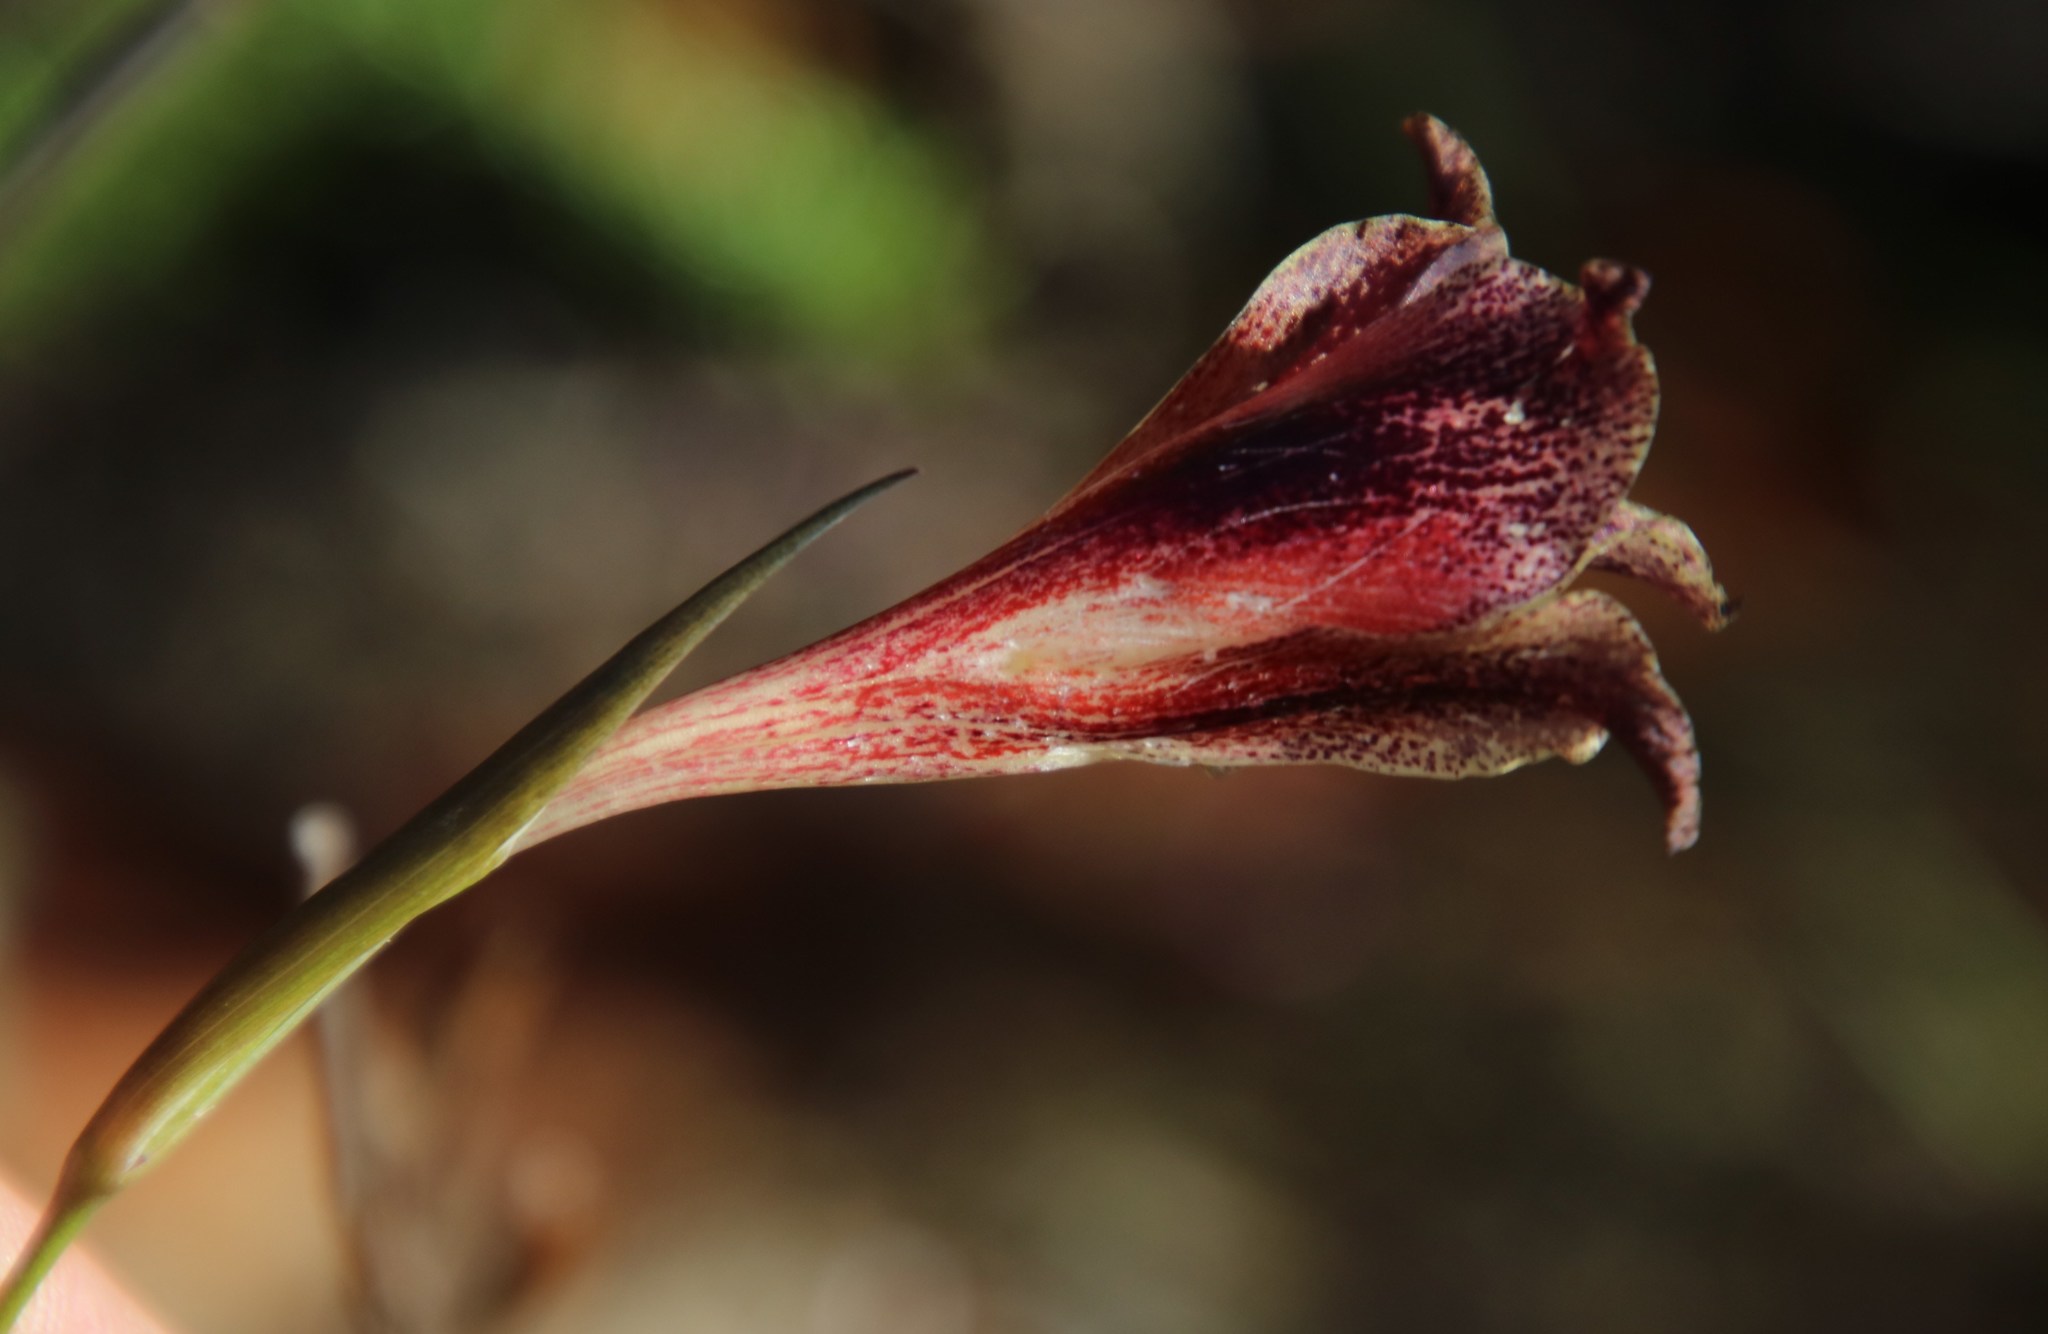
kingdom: Plantae
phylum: Tracheophyta
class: Liliopsida
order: Asparagales
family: Iridaceae
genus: Gladiolus
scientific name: Gladiolus maculatus
